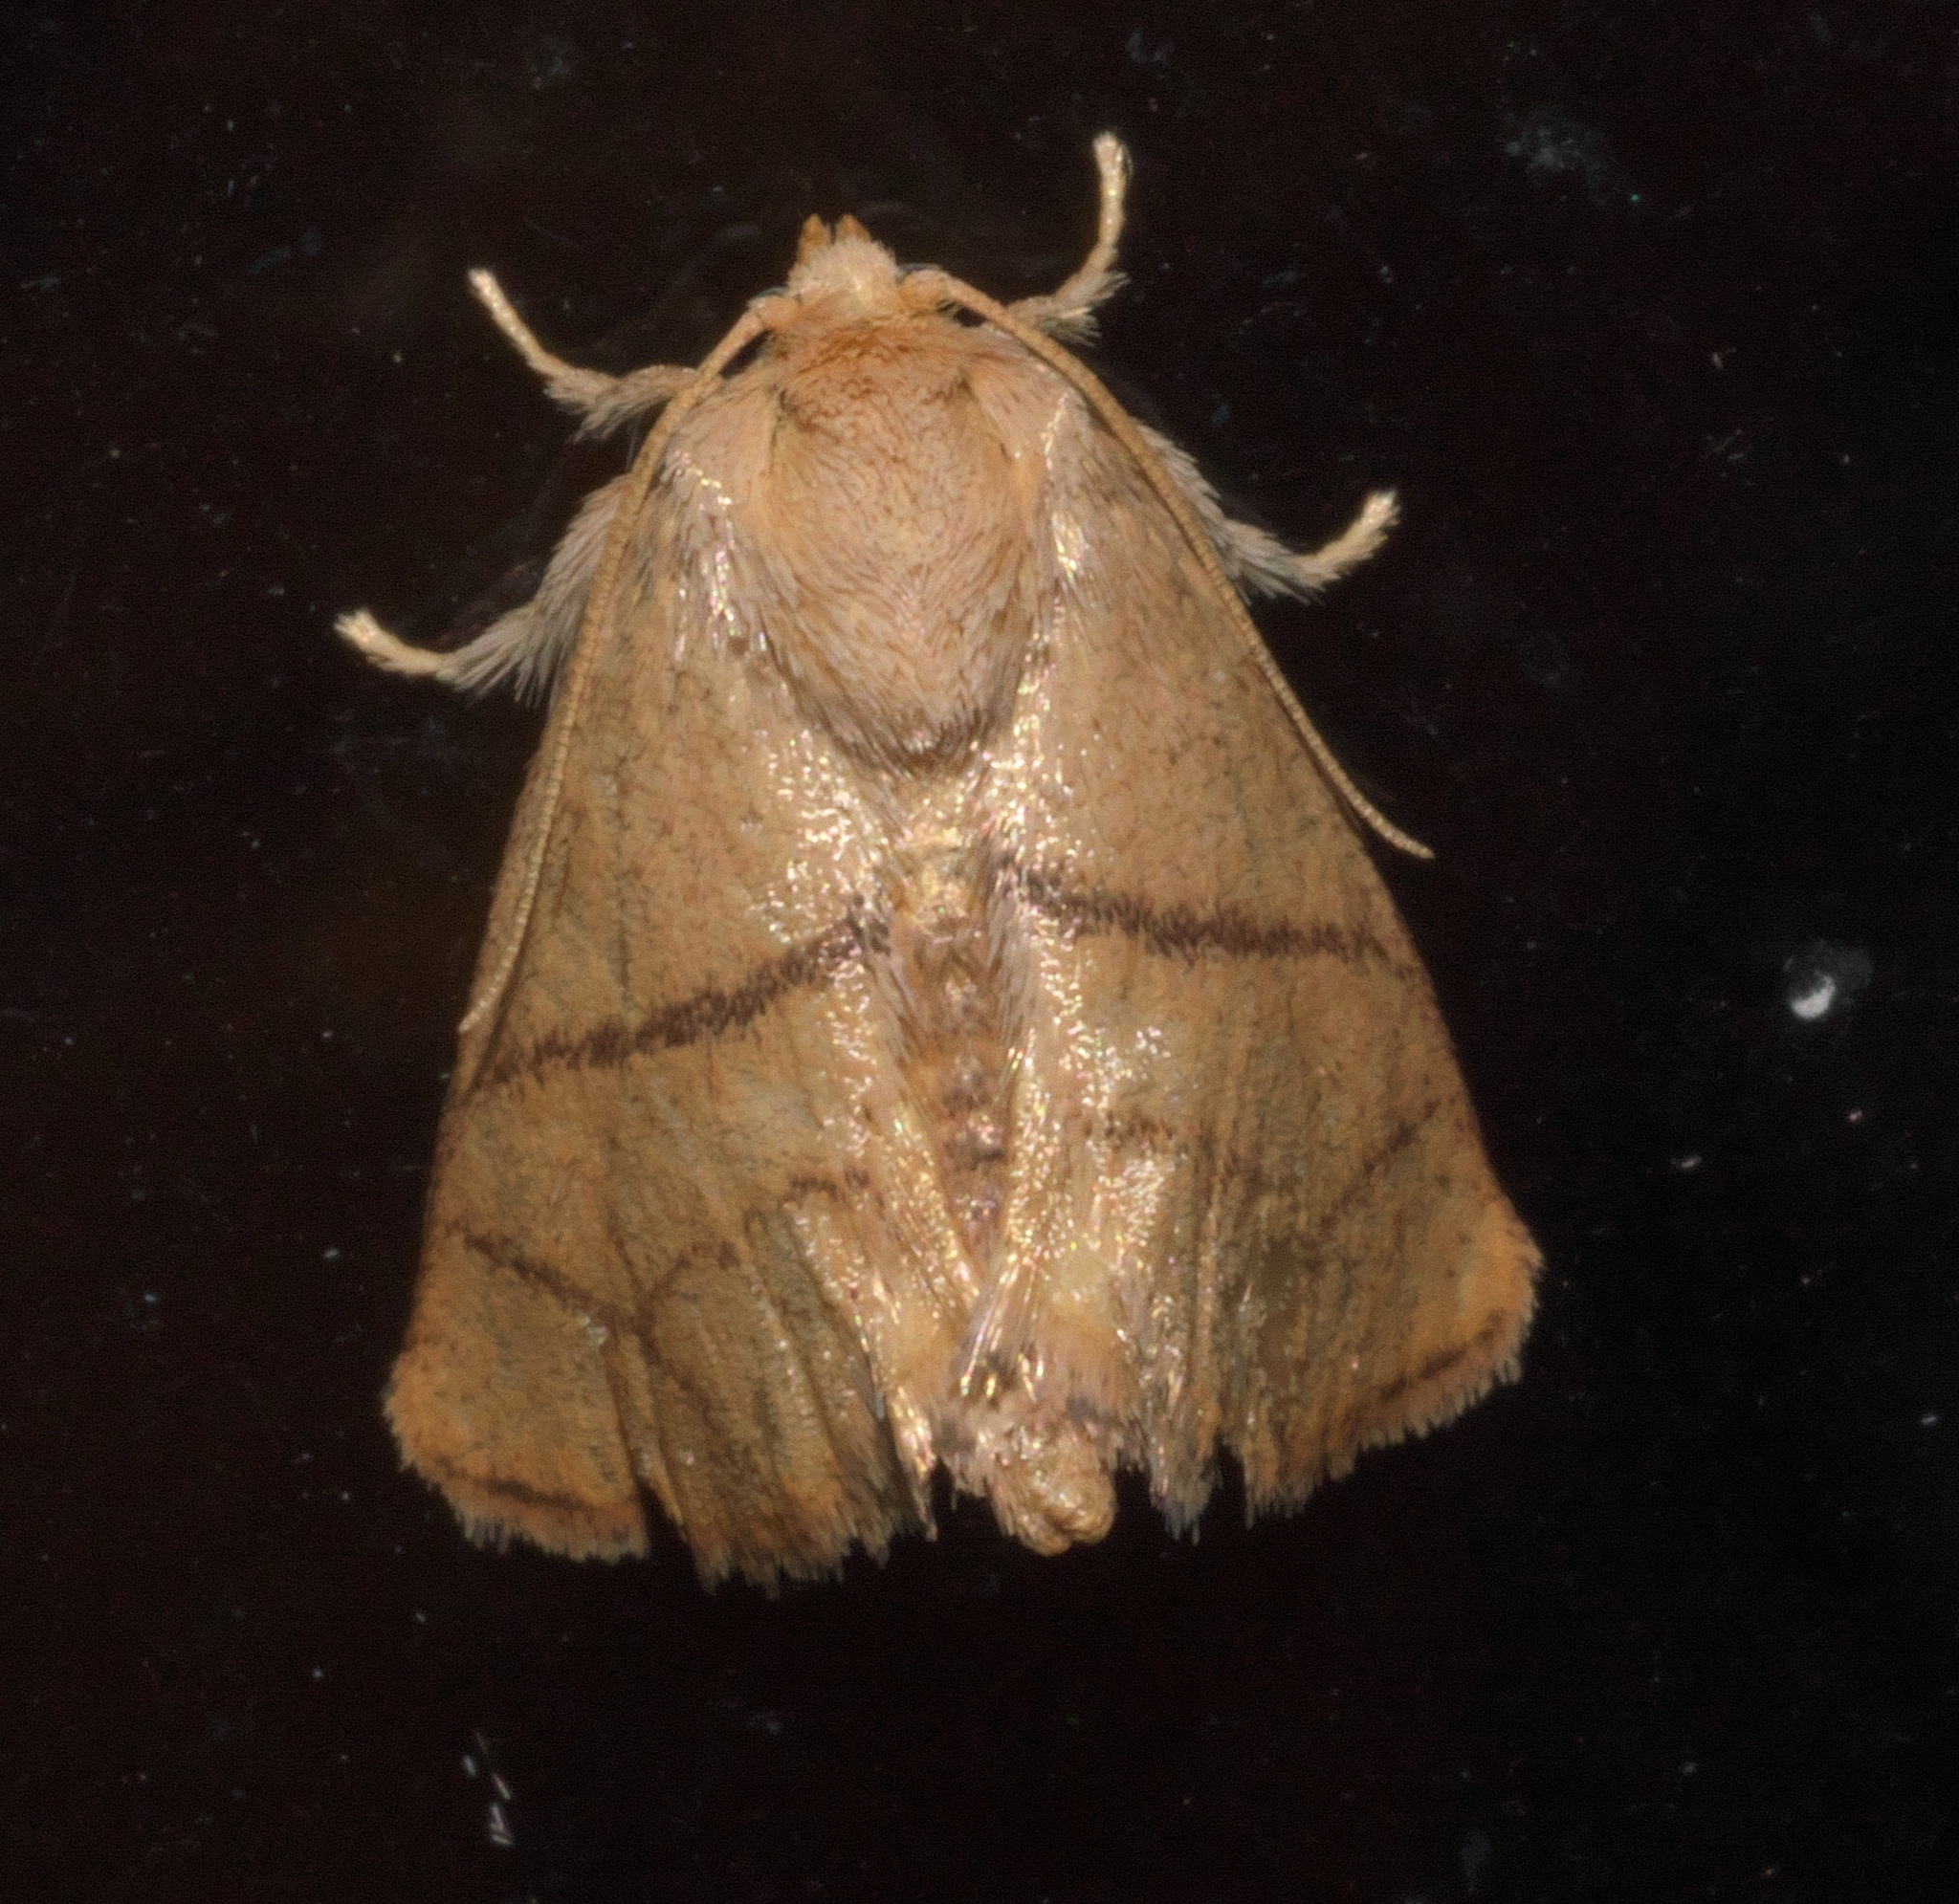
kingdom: Animalia
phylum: Arthropoda
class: Insecta
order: Lepidoptera
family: Limacodidae
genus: Apoda
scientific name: Apoda y-inversa
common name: Yellow-collared slug moth
